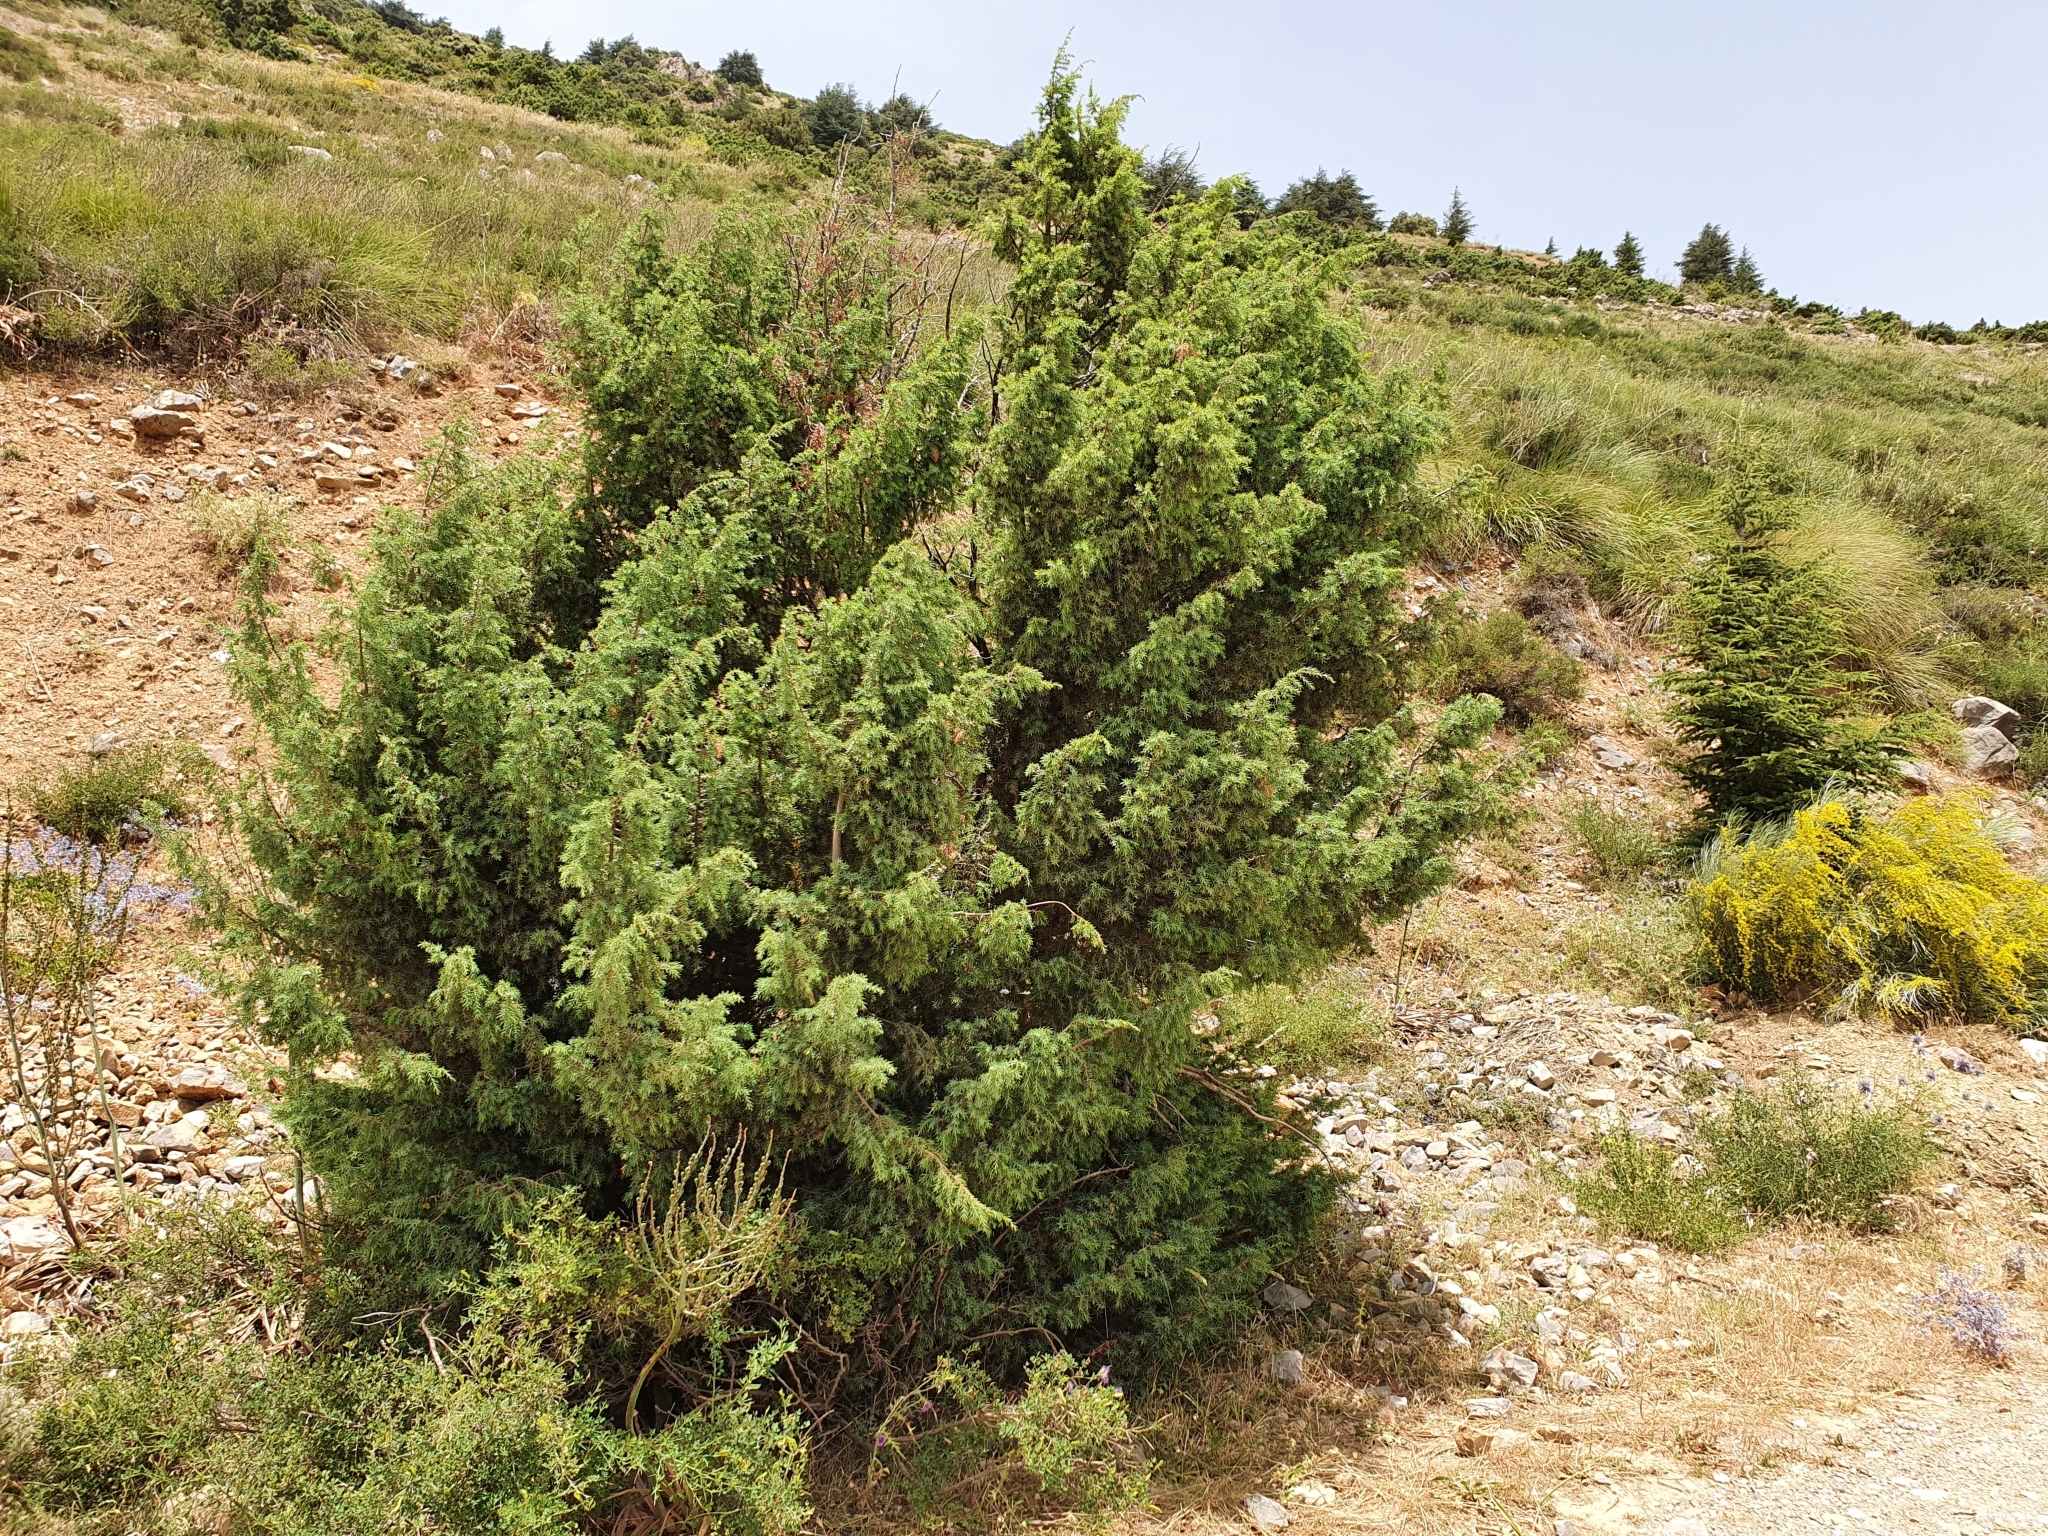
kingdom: Plantae
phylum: Tracheophyta
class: Pinopsida
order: Pinales
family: Cupressaceae
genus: Juniperus
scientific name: Juniperus oxycedrus
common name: Prickly juniper
